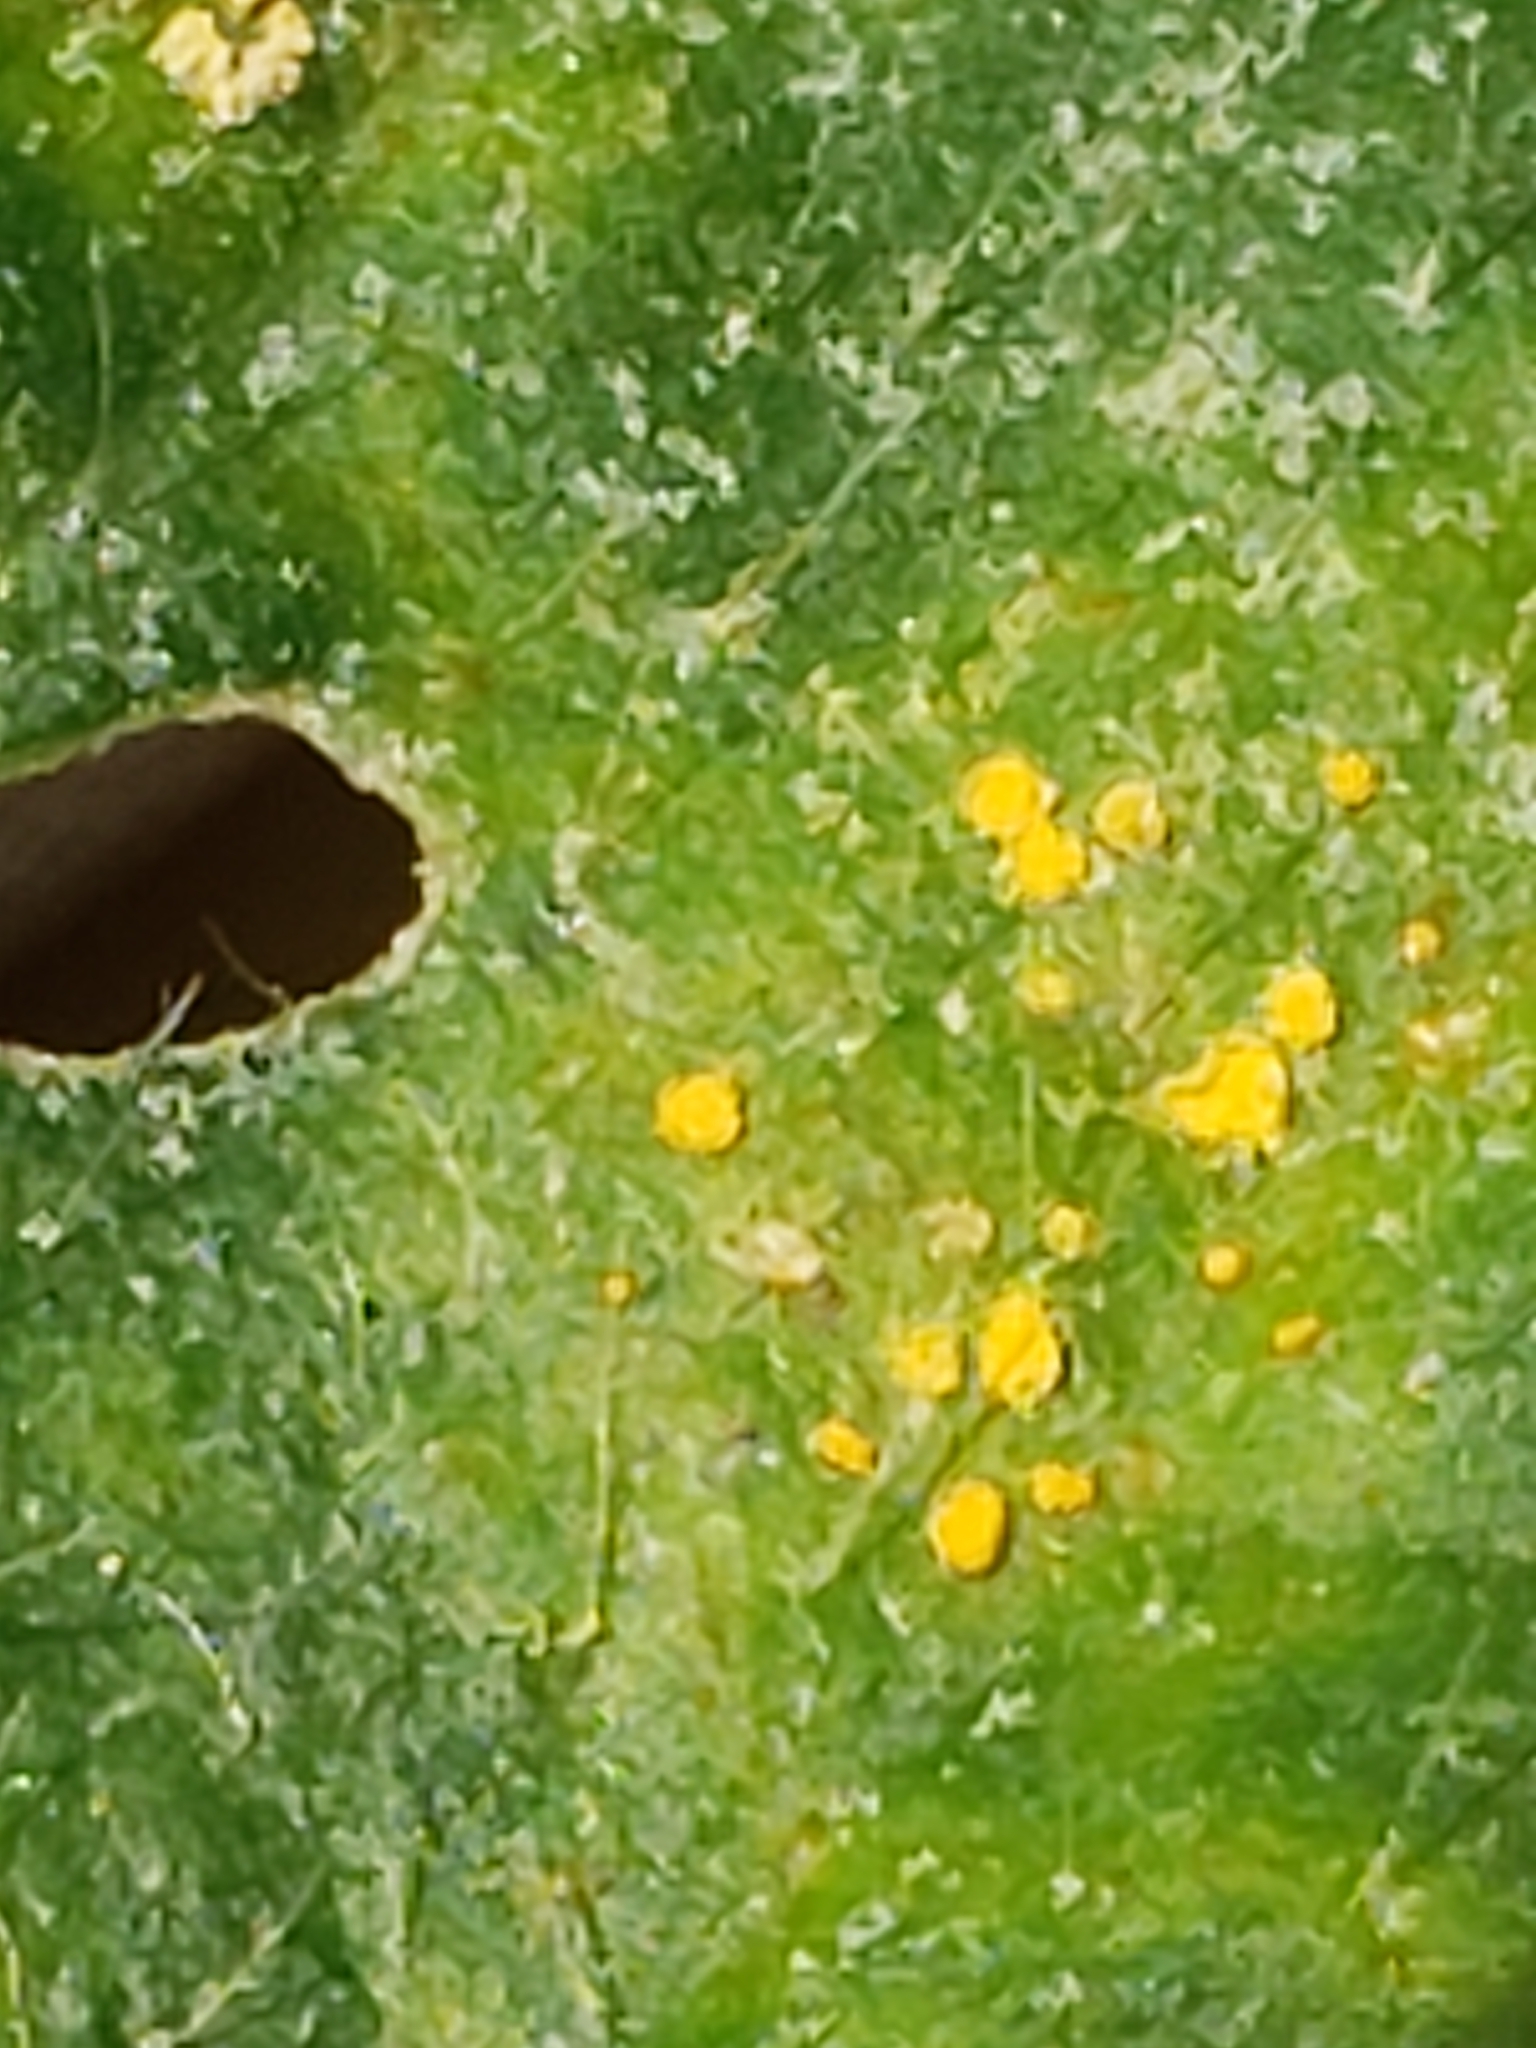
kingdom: Fungi
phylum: Basidiomycota
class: Pucciniomycetes
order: Pucciniales
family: Coleosporiaceae
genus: Coleosporium
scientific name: Coleosporium elephantopodis
